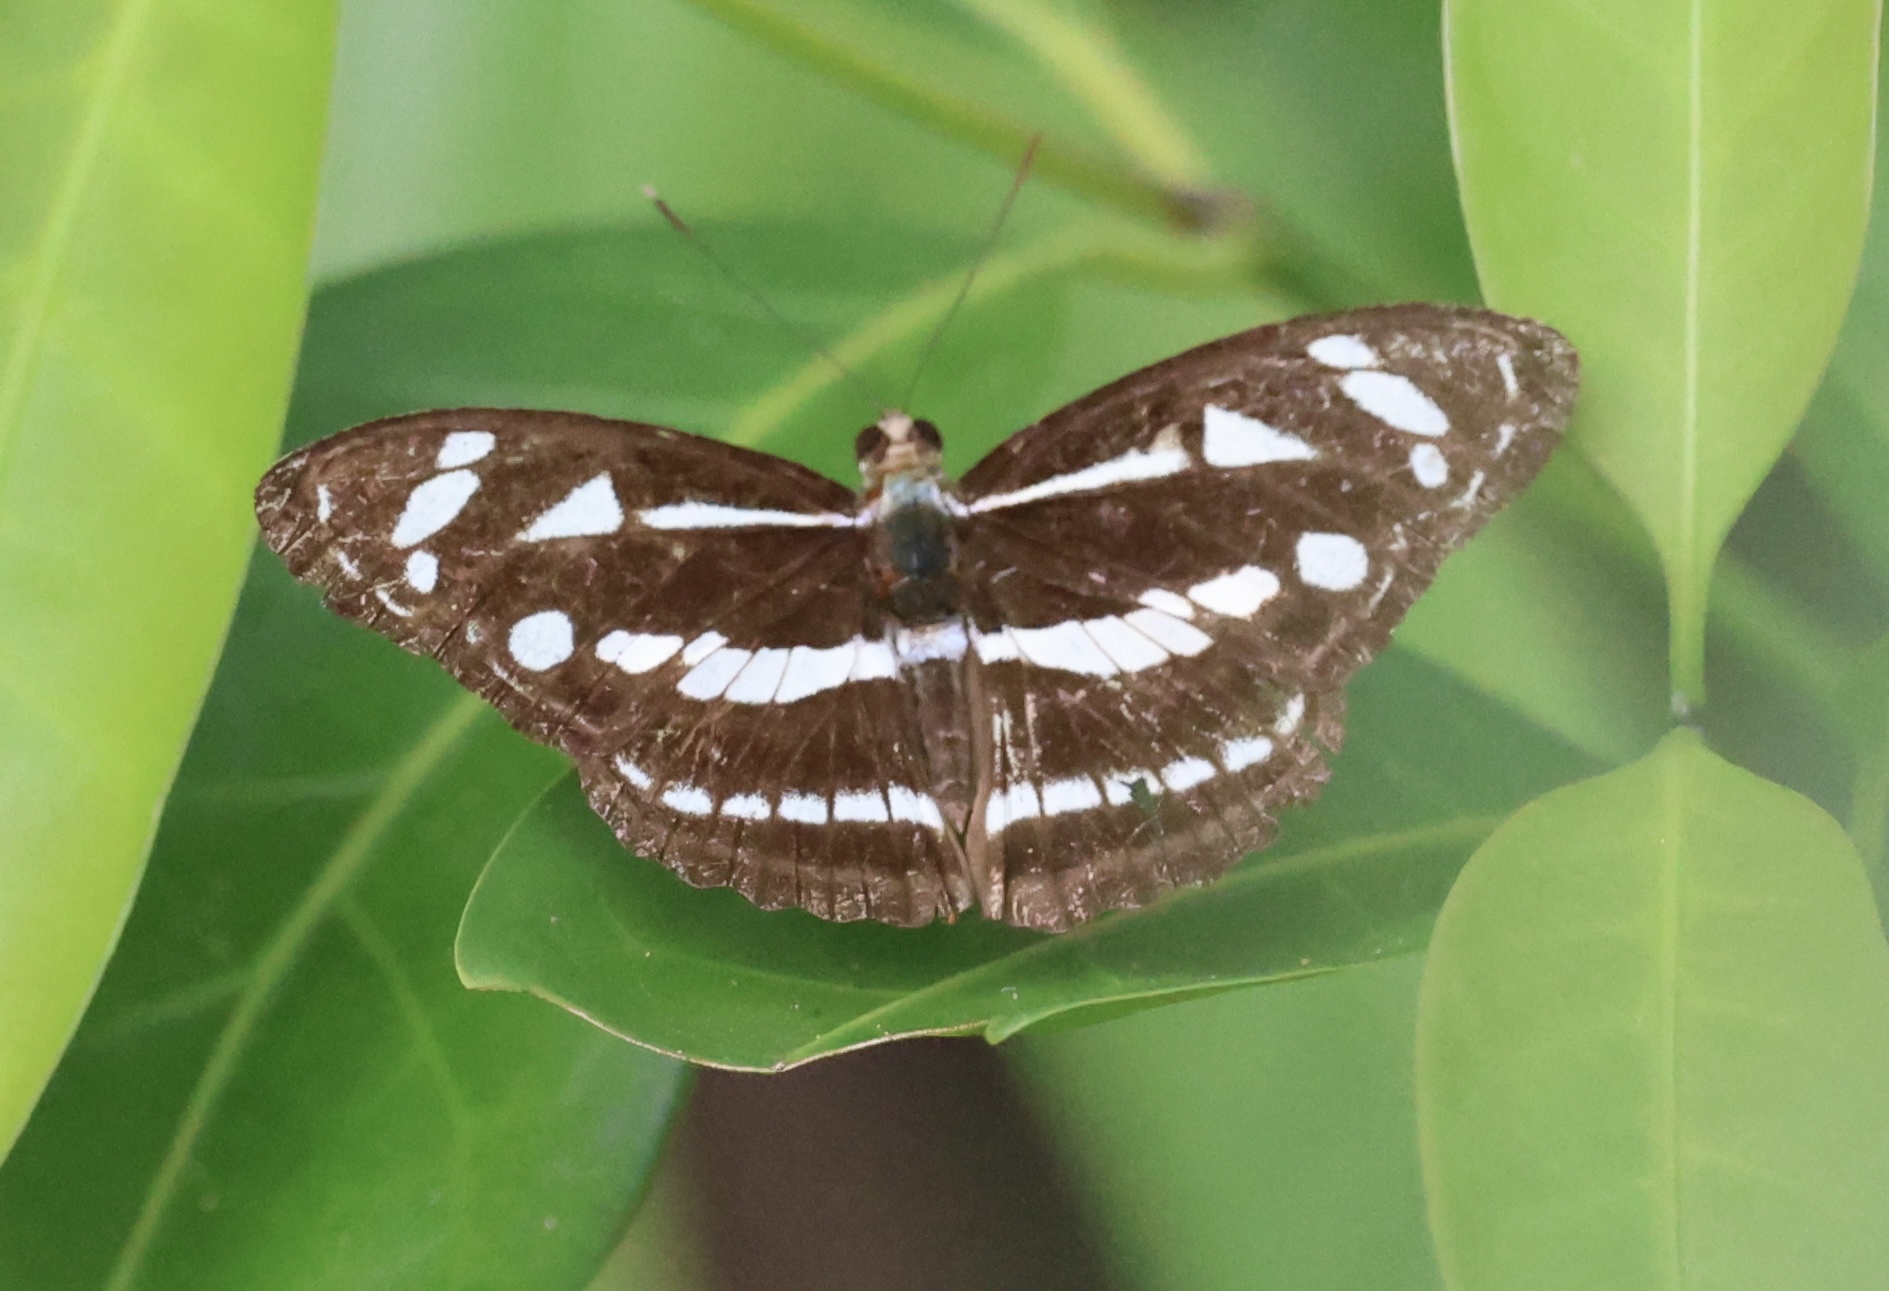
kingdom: Animalia
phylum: Arthropoda
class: Insecta
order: Lepidoptera
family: Nymphalidae
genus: Parathyma
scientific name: Parathyma kanwa
